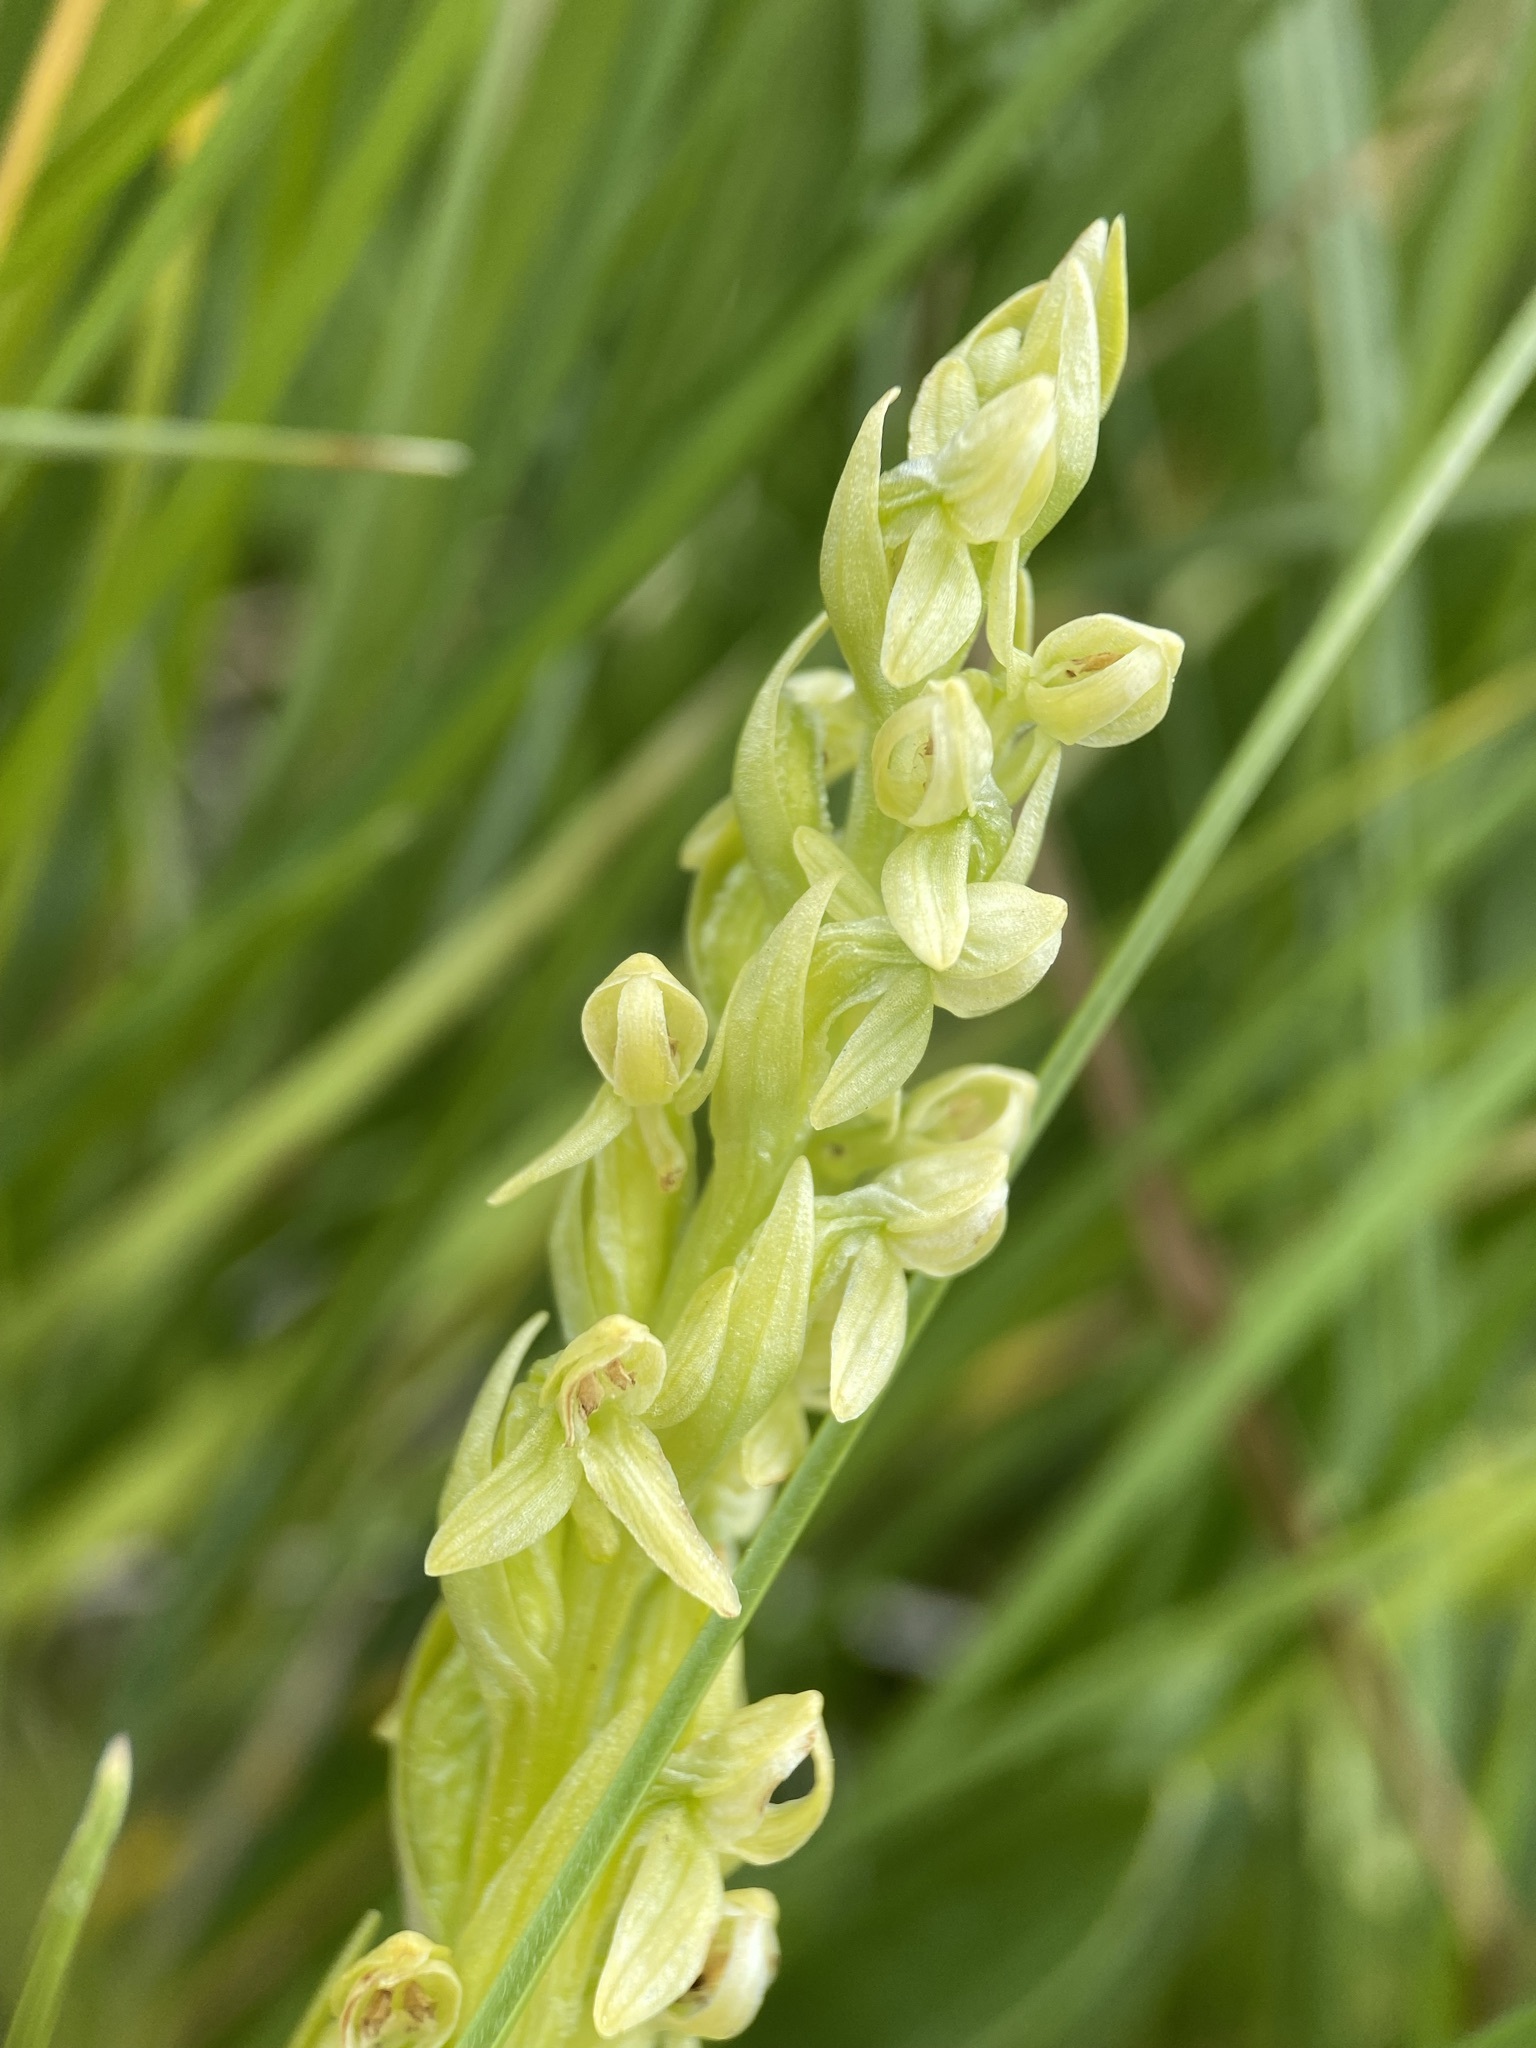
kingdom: Plantae
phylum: Tracheophyta
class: Liliopsida
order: Asparagales
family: Orchidaceae
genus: Platanthera
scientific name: Platanthera huronensis
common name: Fragrant green orchid
